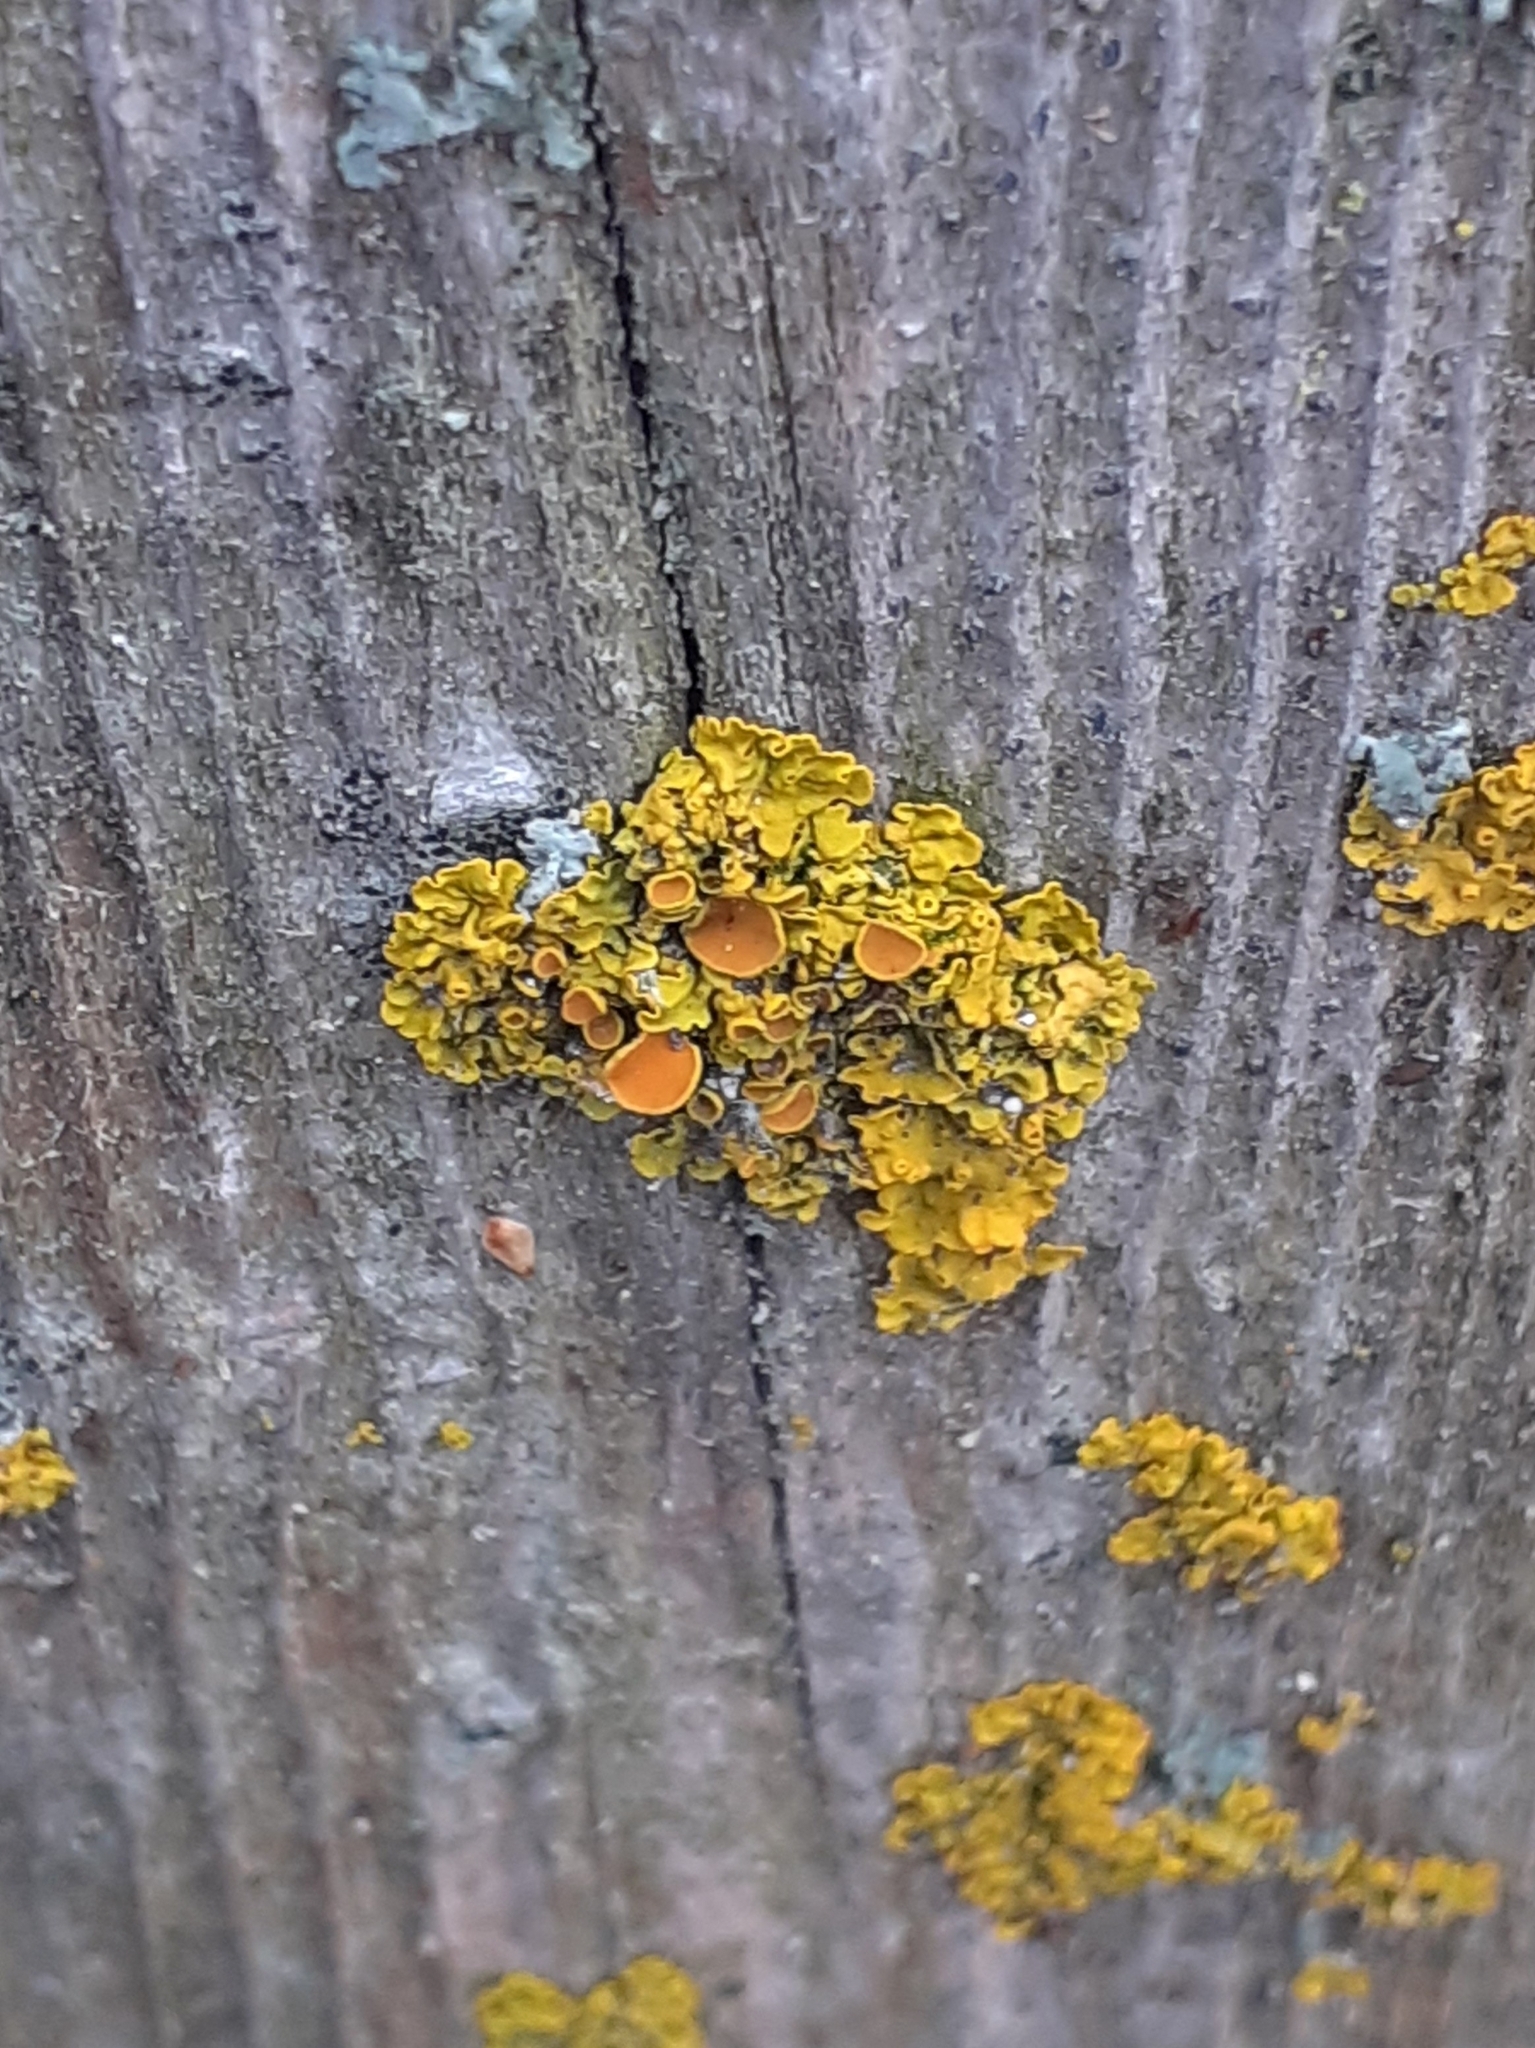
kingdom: Fungi
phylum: Ascomycota
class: Lecanoromycetes
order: Teloschistales
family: Teloschistaceae
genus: Xanthoria
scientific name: Xanthoria parietina
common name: Common orange lichen
